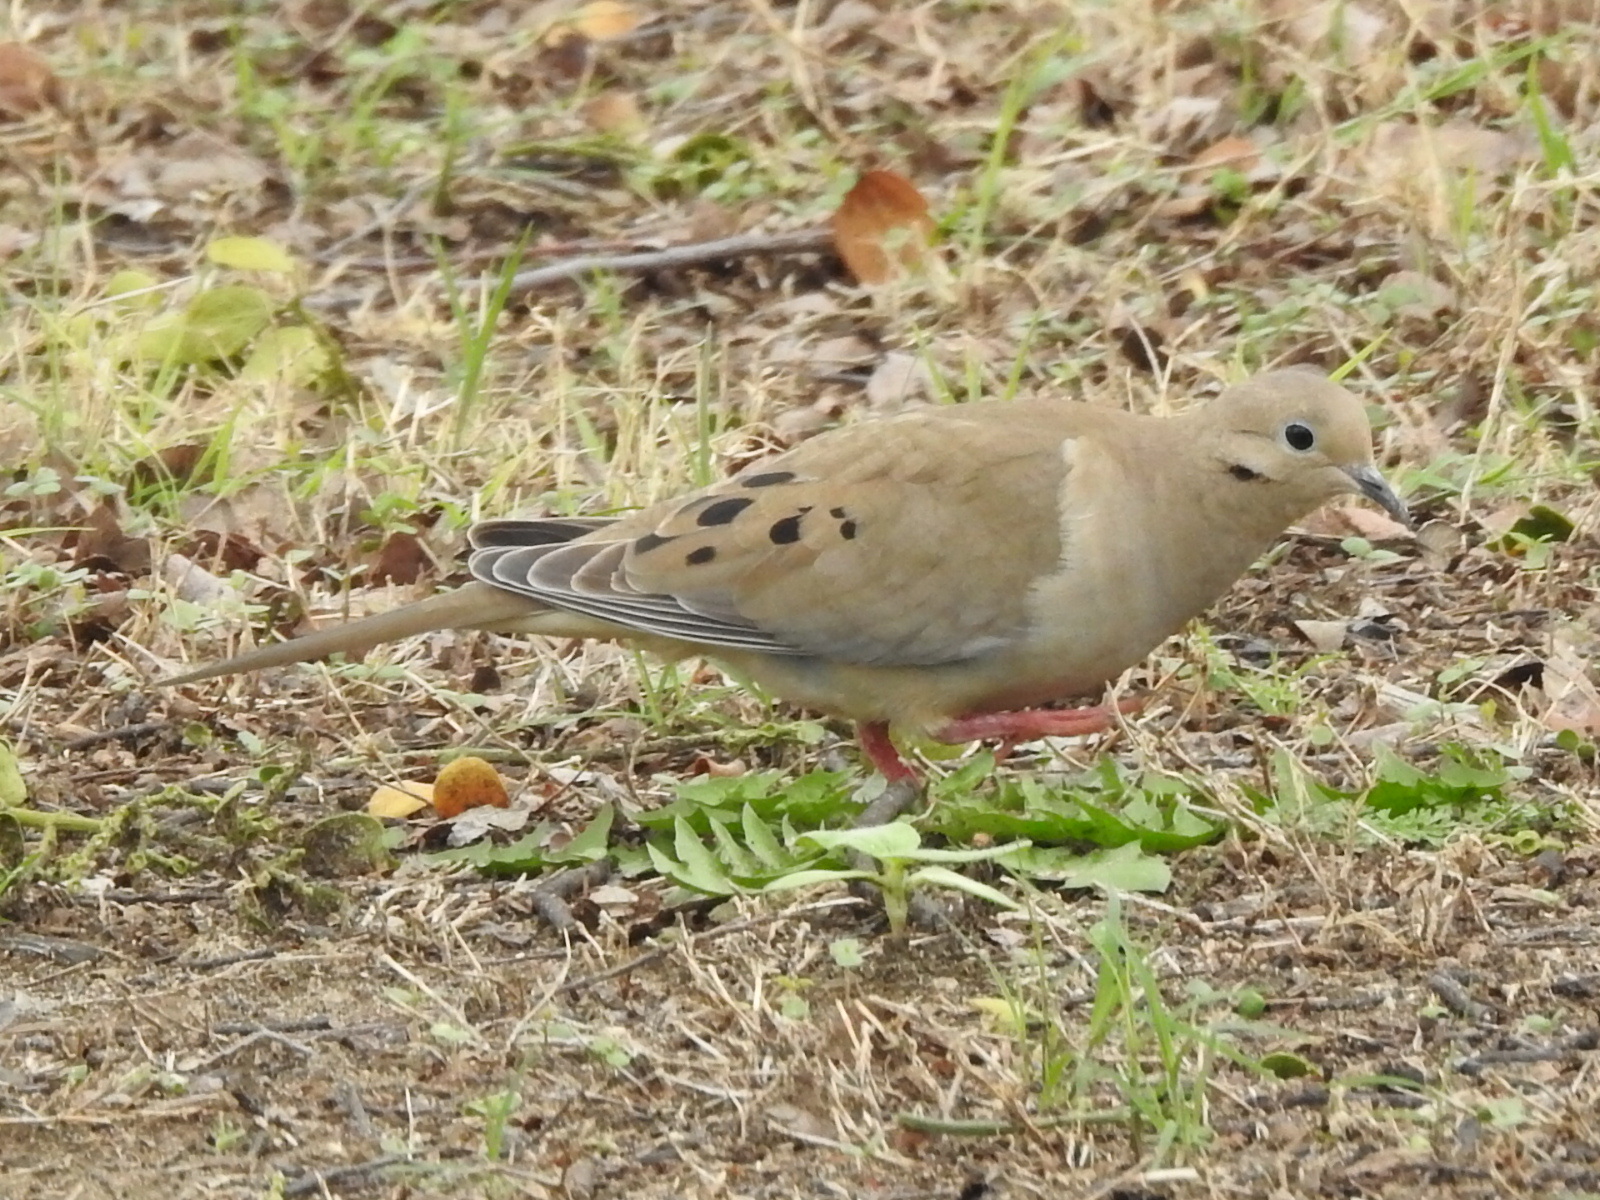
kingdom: Animalia
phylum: Chordata
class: Aves
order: Columbiformes
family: Columbidae
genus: Zenaida
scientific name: Zenaida macroura
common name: Mourning dove
